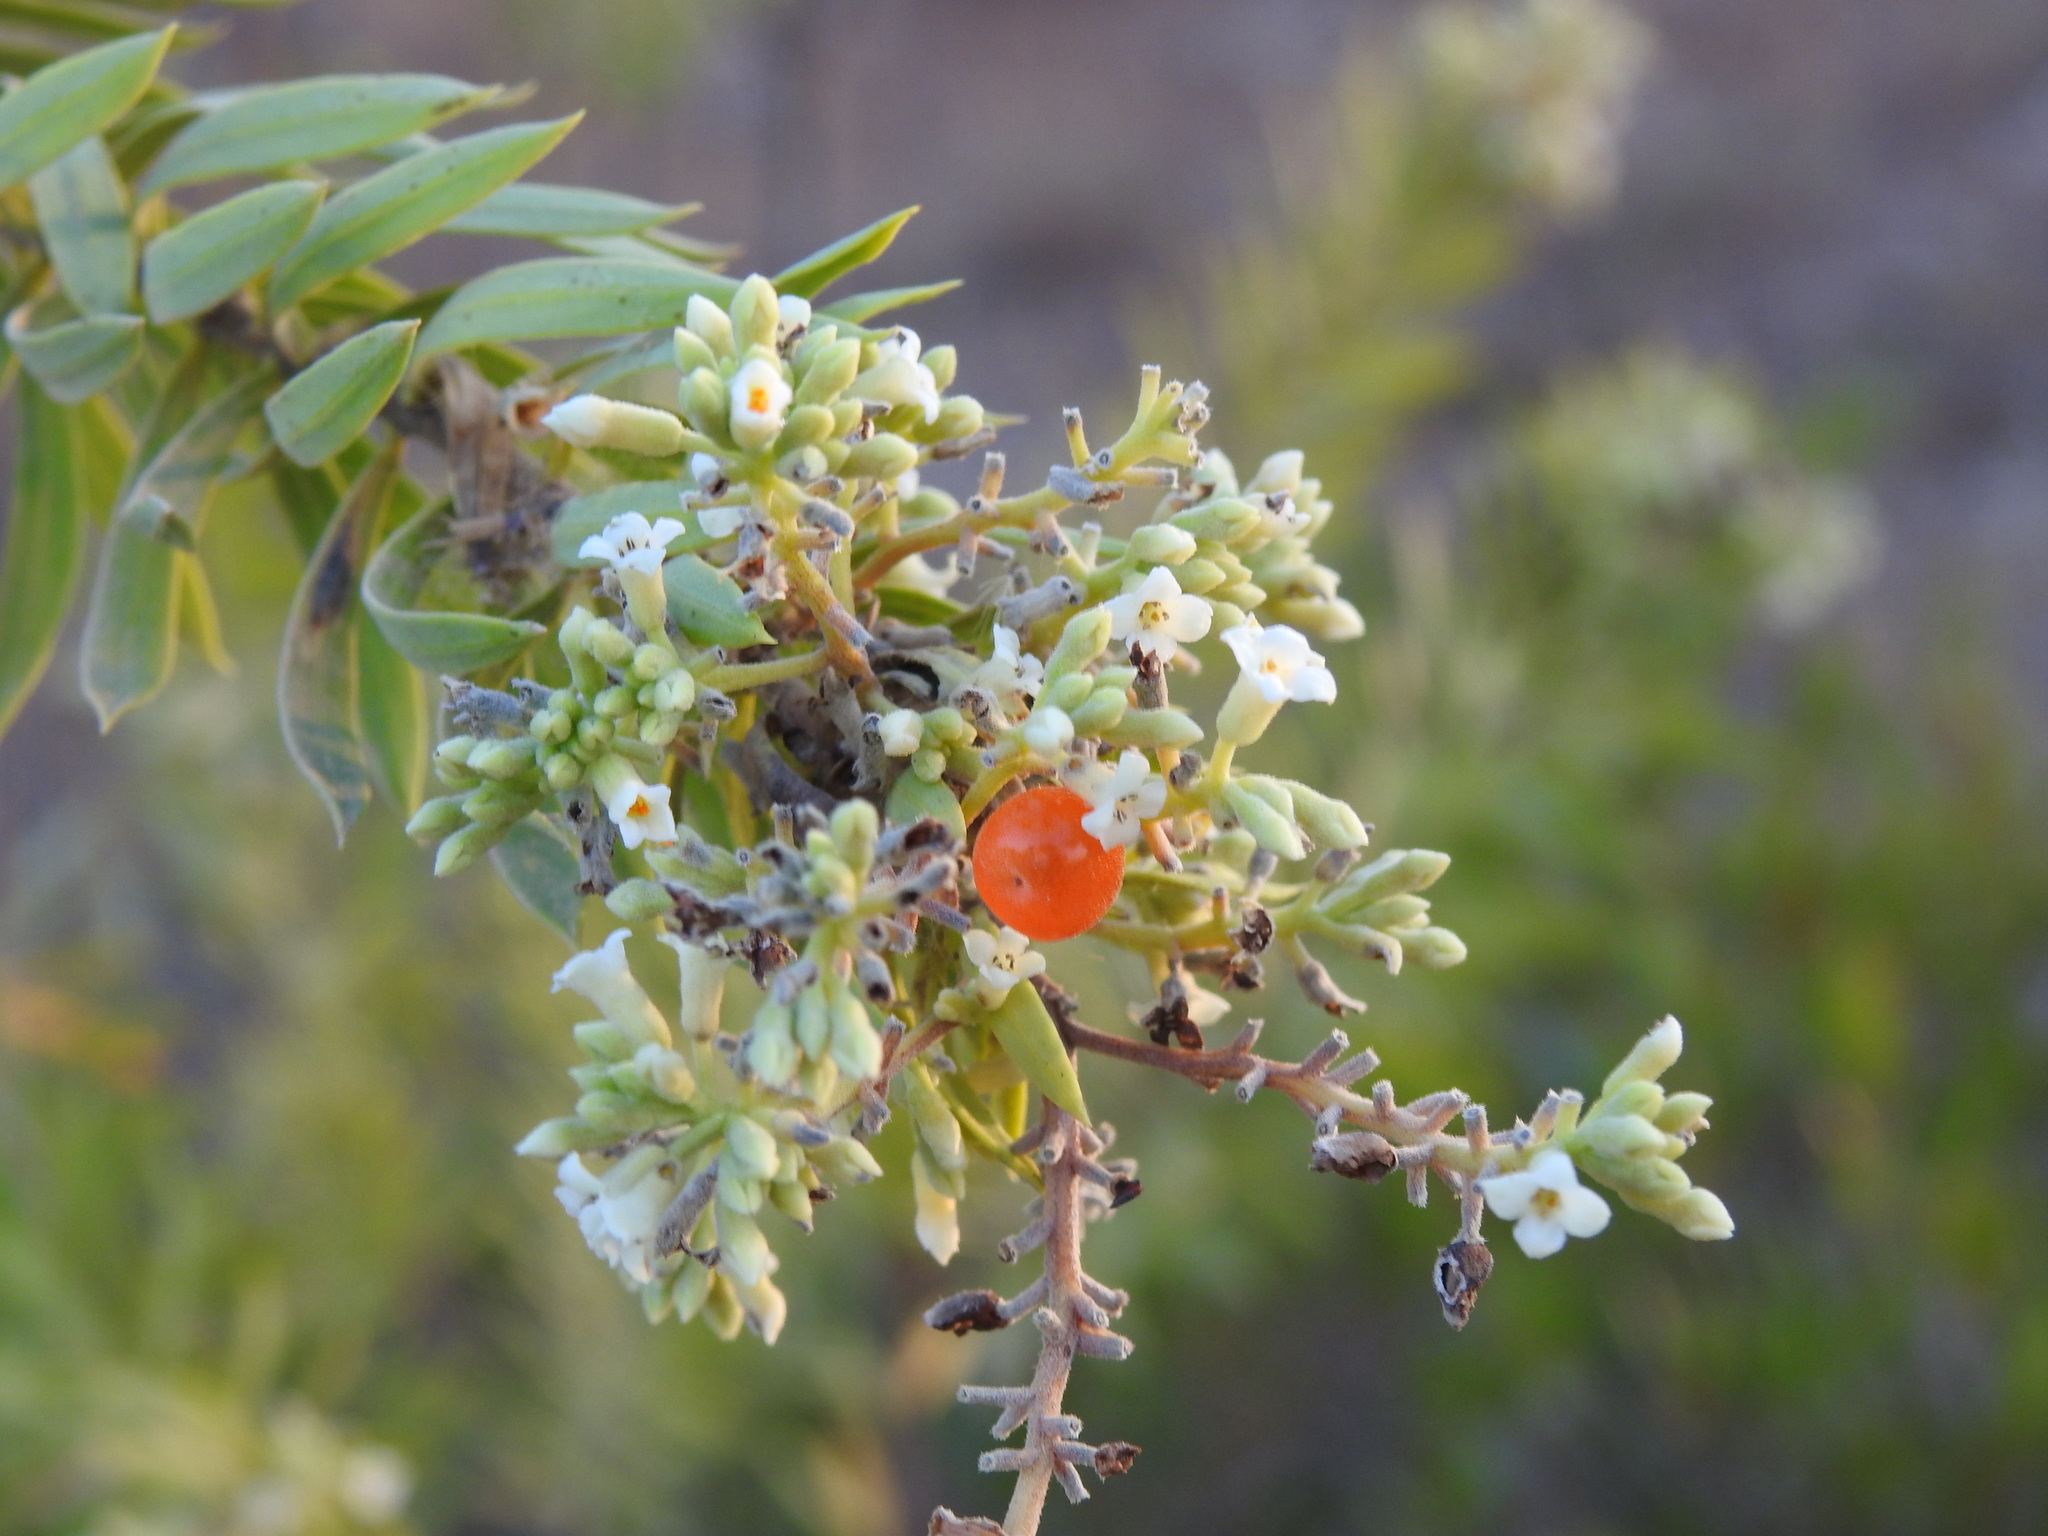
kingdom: Plantae
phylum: Tracheophyta
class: Magnoliopsida
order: Malvales
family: Thymelaeaceae
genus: Daphne
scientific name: Daphne gnidium
